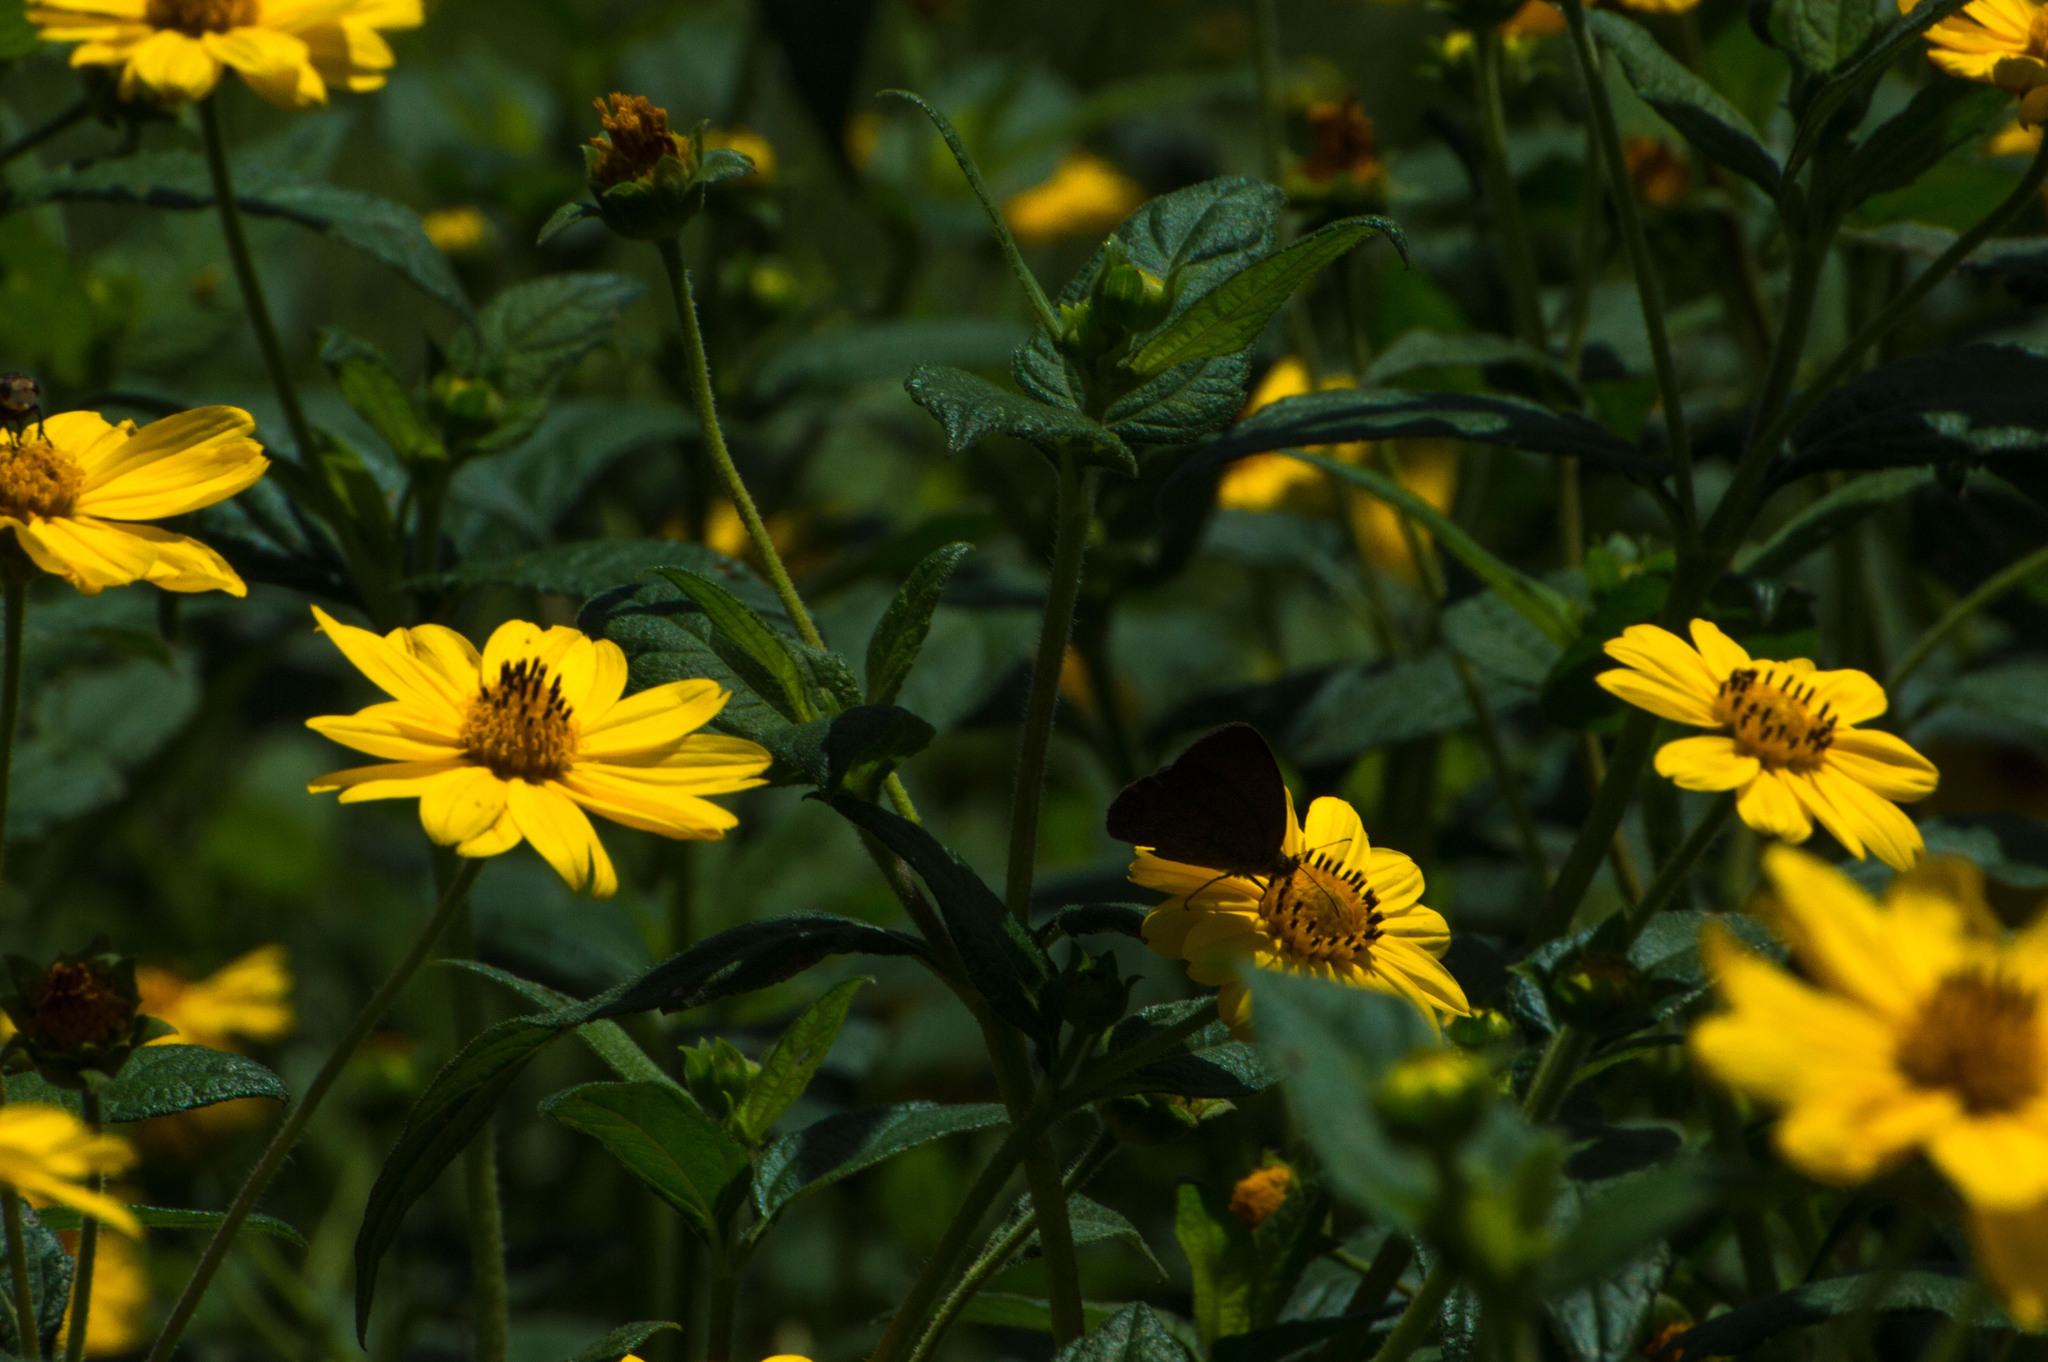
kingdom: Plantae
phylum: Tracheophyta
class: Magnoliopsida
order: Asterales
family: Asteraceae
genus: Wedelia
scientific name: Wedelia silphioides
